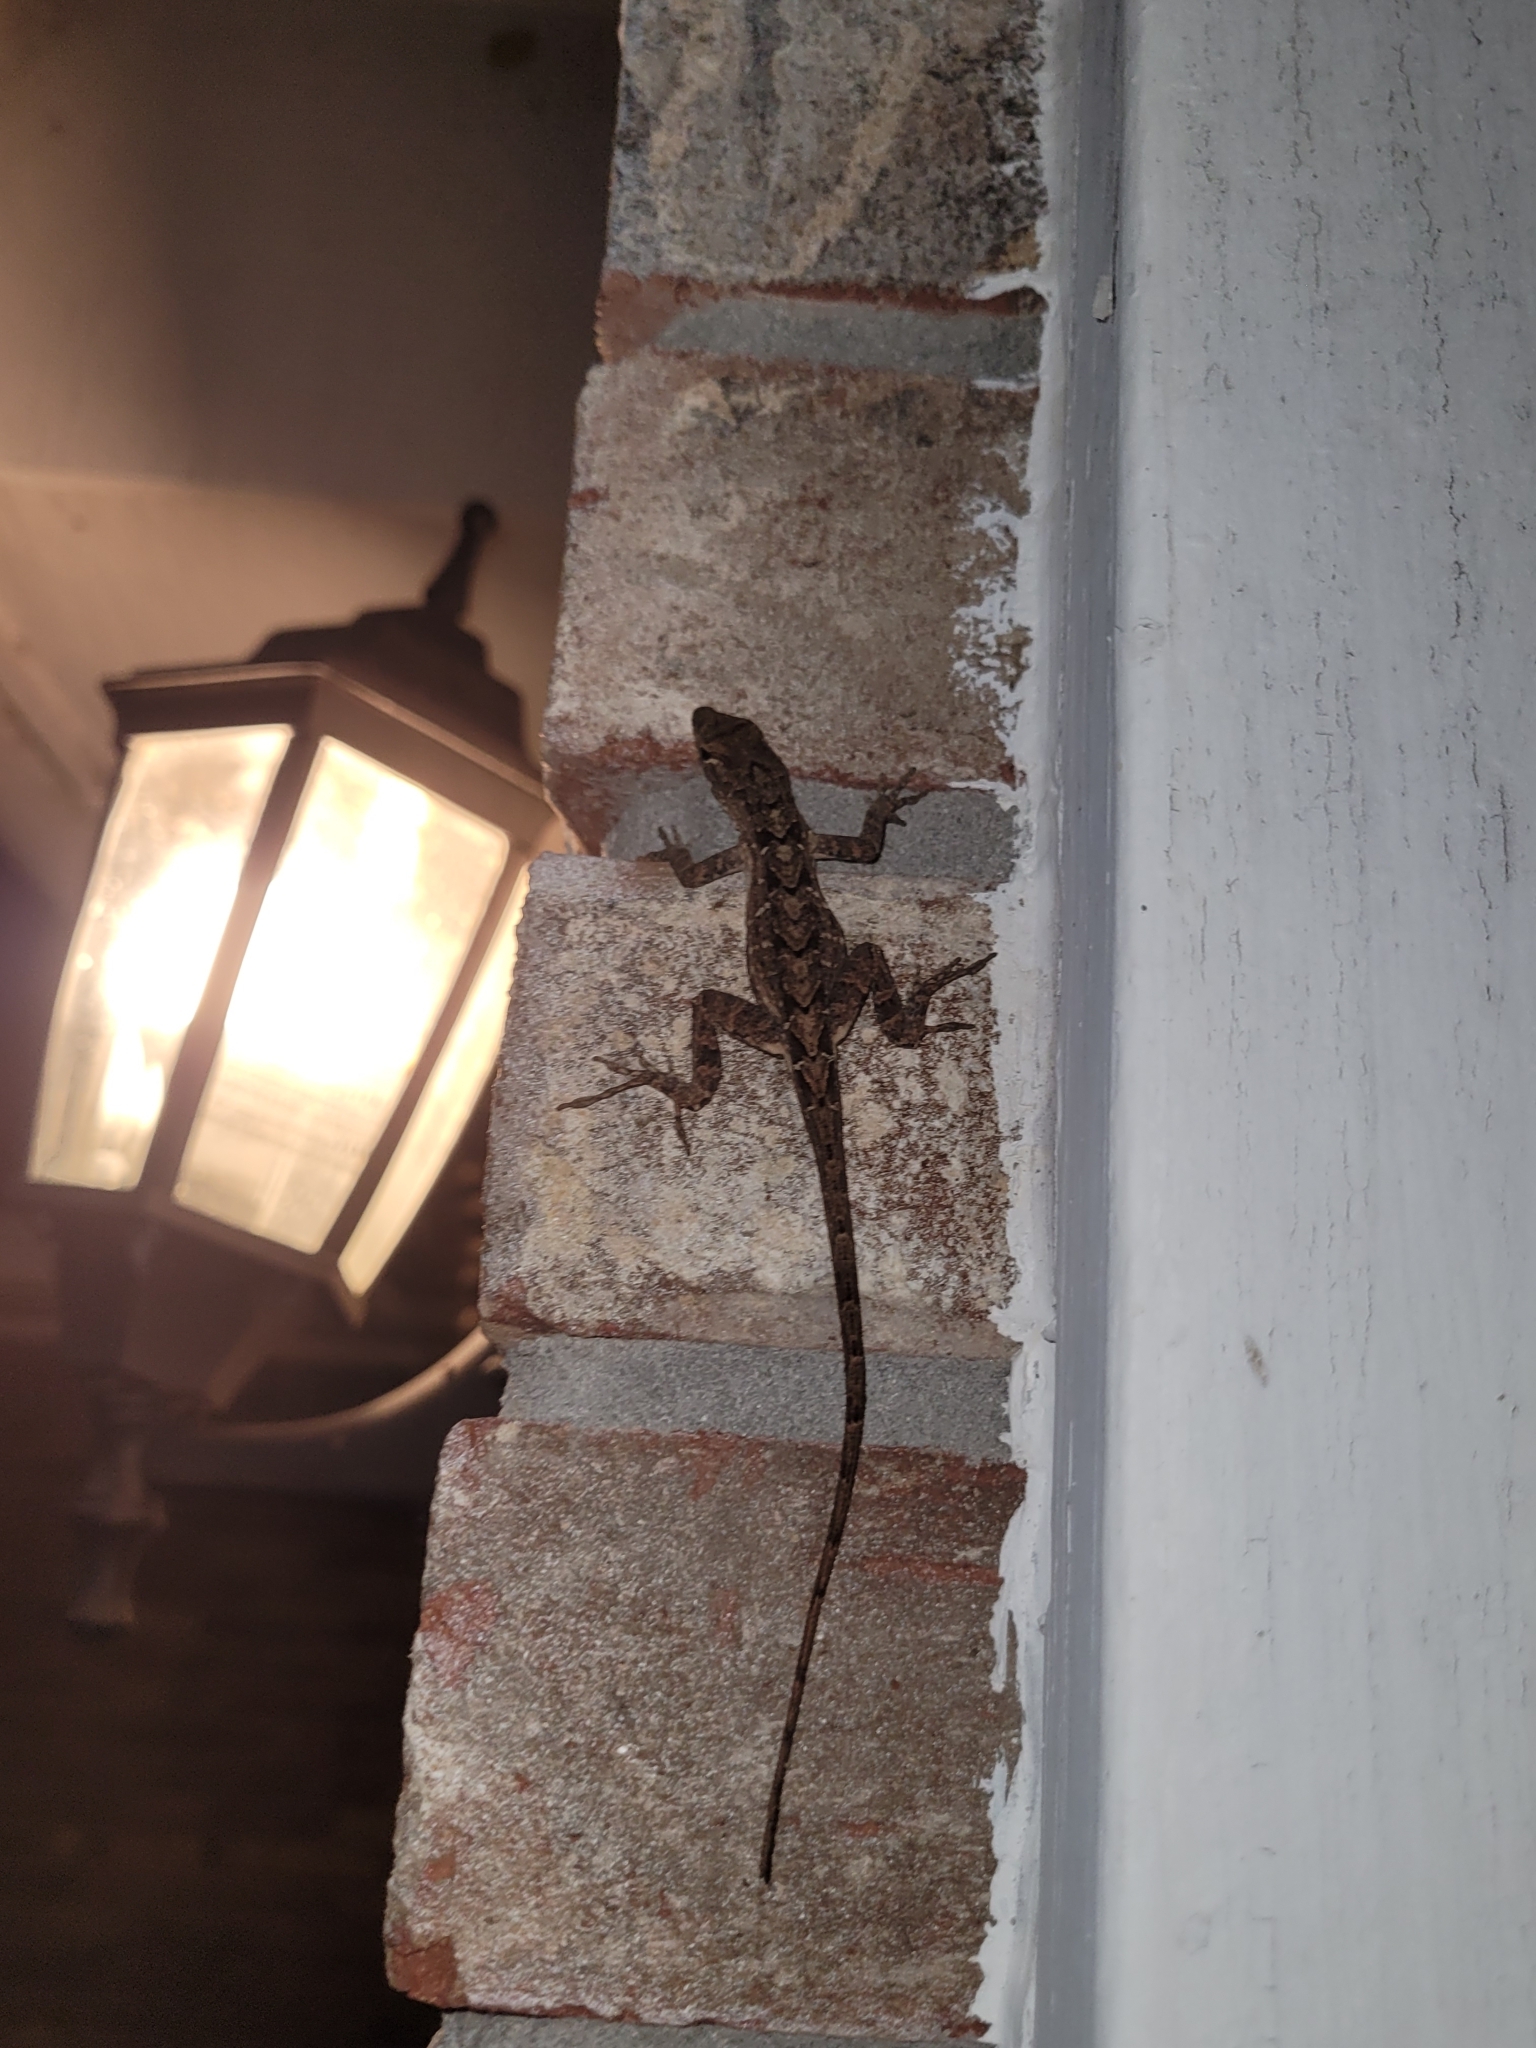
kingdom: Animalia
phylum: Chordata
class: Squamata
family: Dactyloidae
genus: Anolis
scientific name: Anolis sagrei
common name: Brown anole
